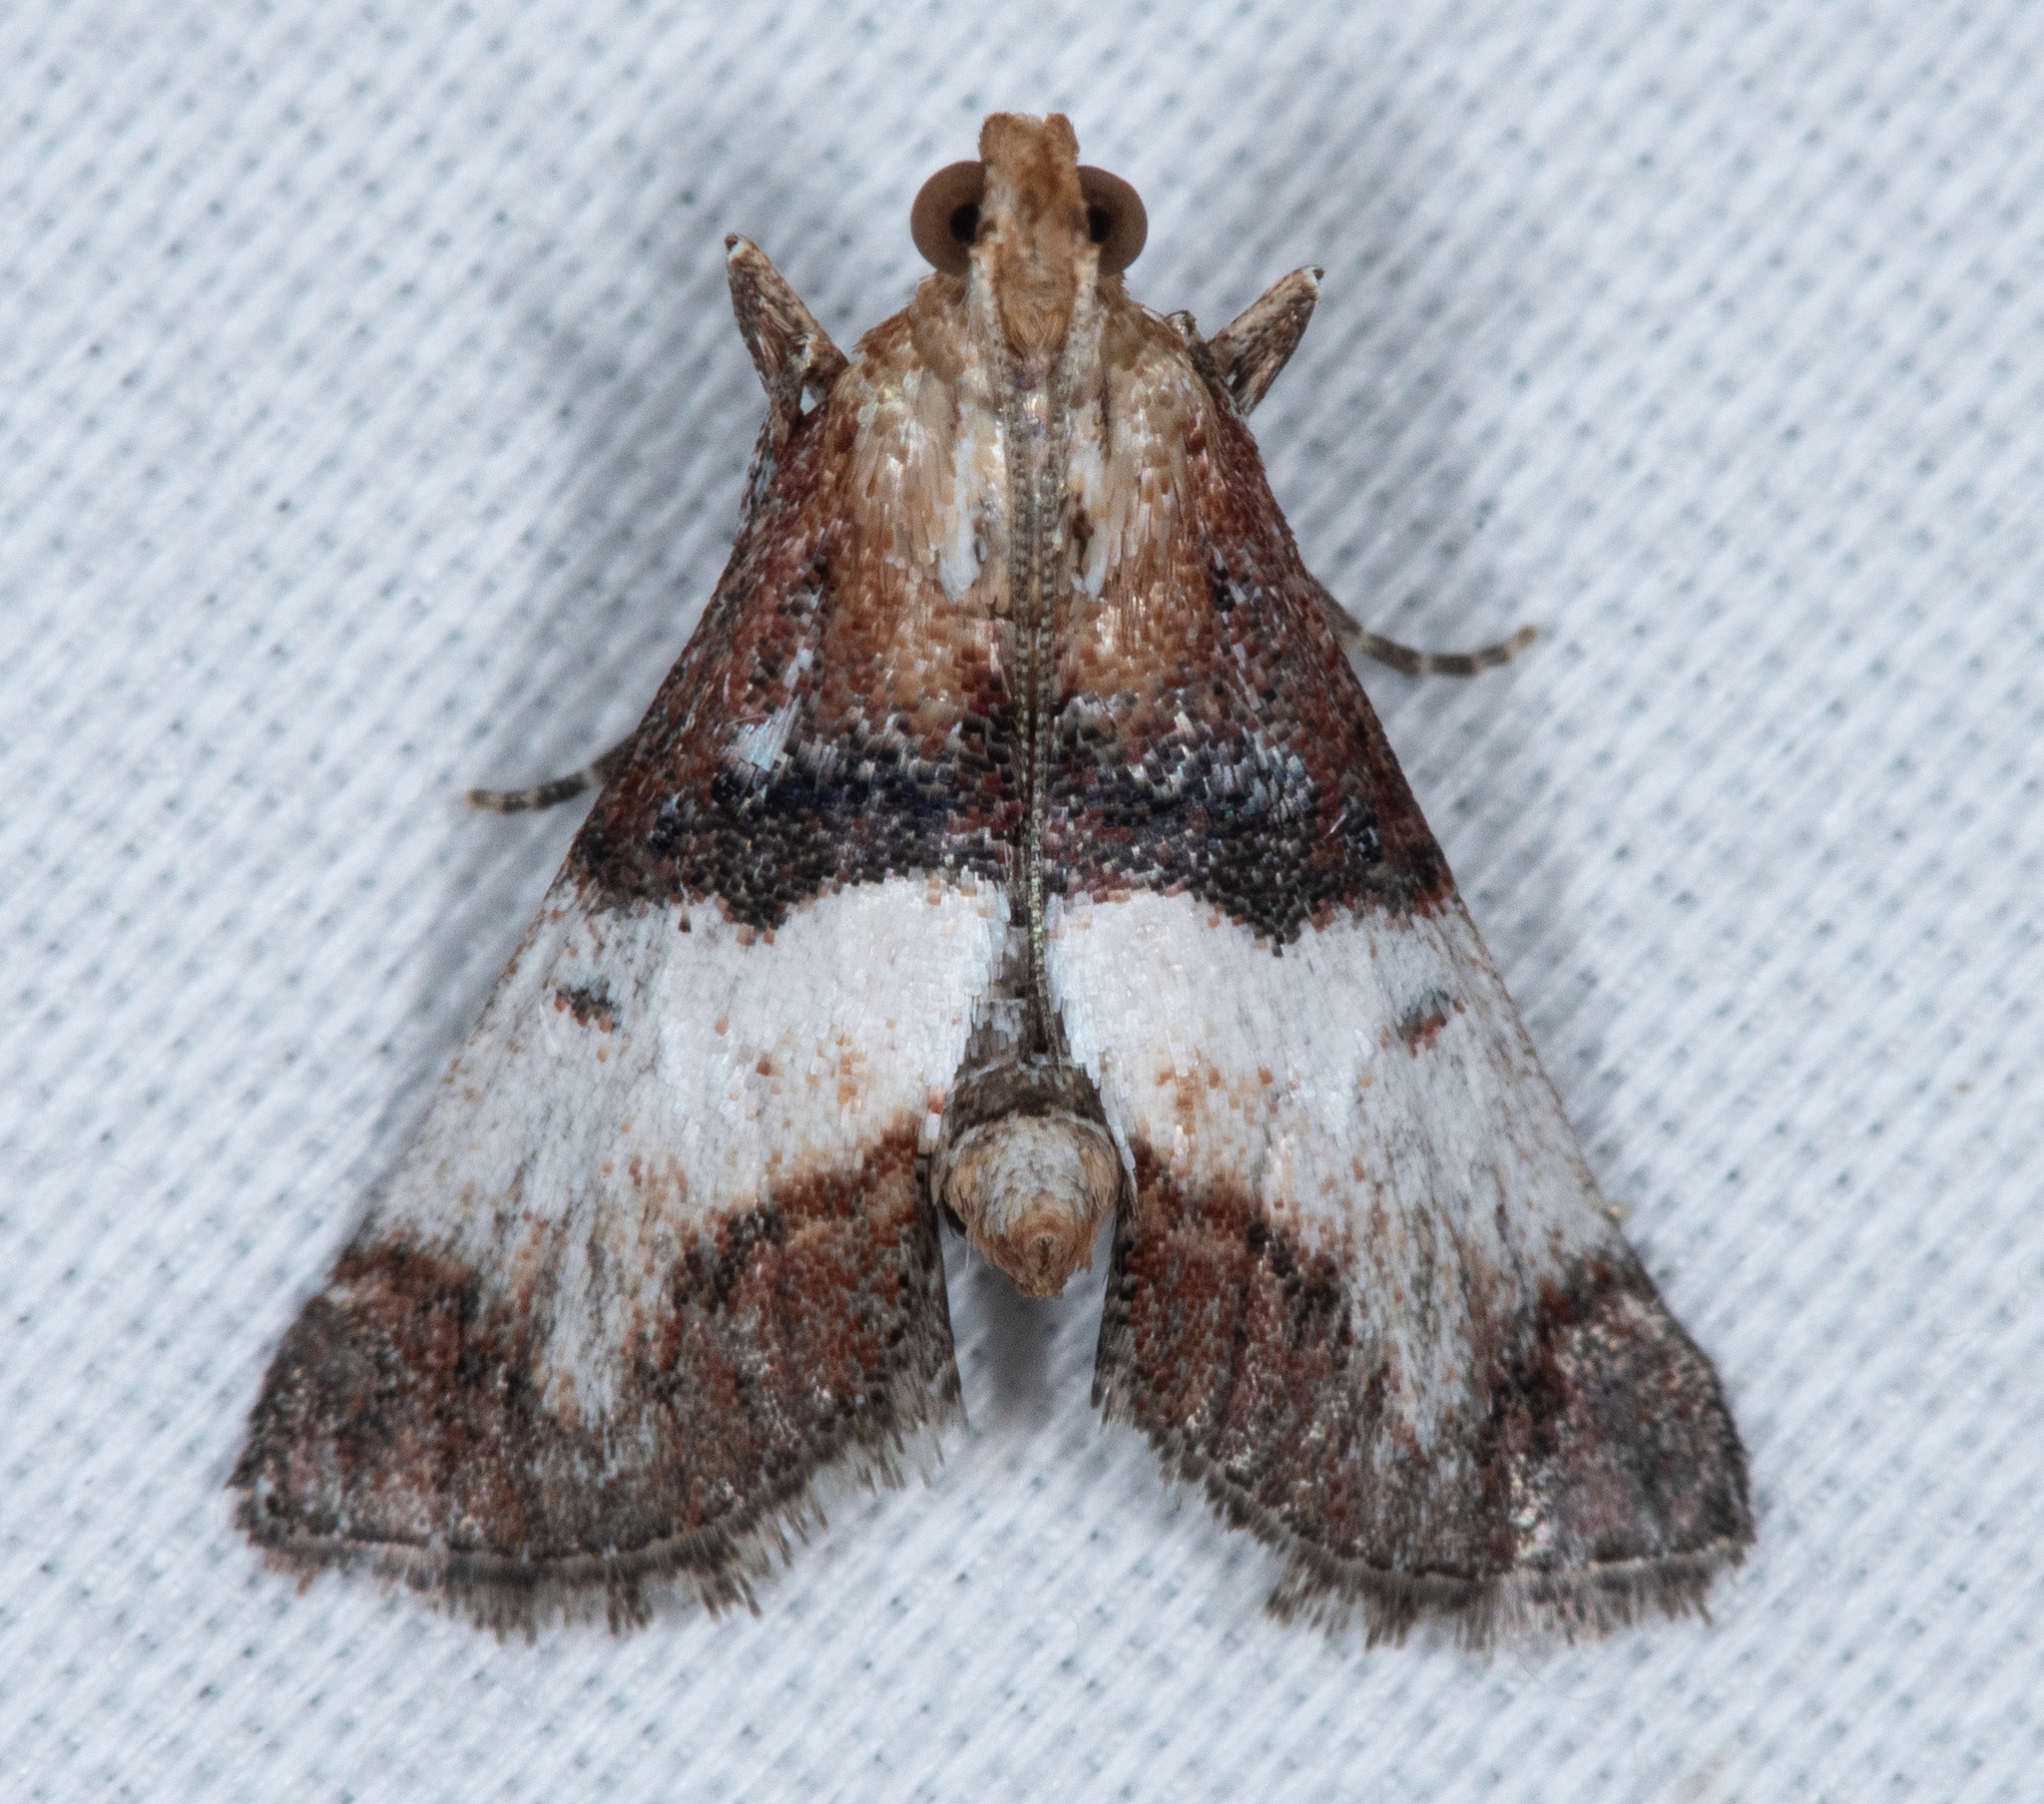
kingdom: Animalia
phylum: Arthropoda
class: Insecta
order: Lepidoptera
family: Pyralidae
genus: Toripalpus
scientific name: Toripalpus trabalis
